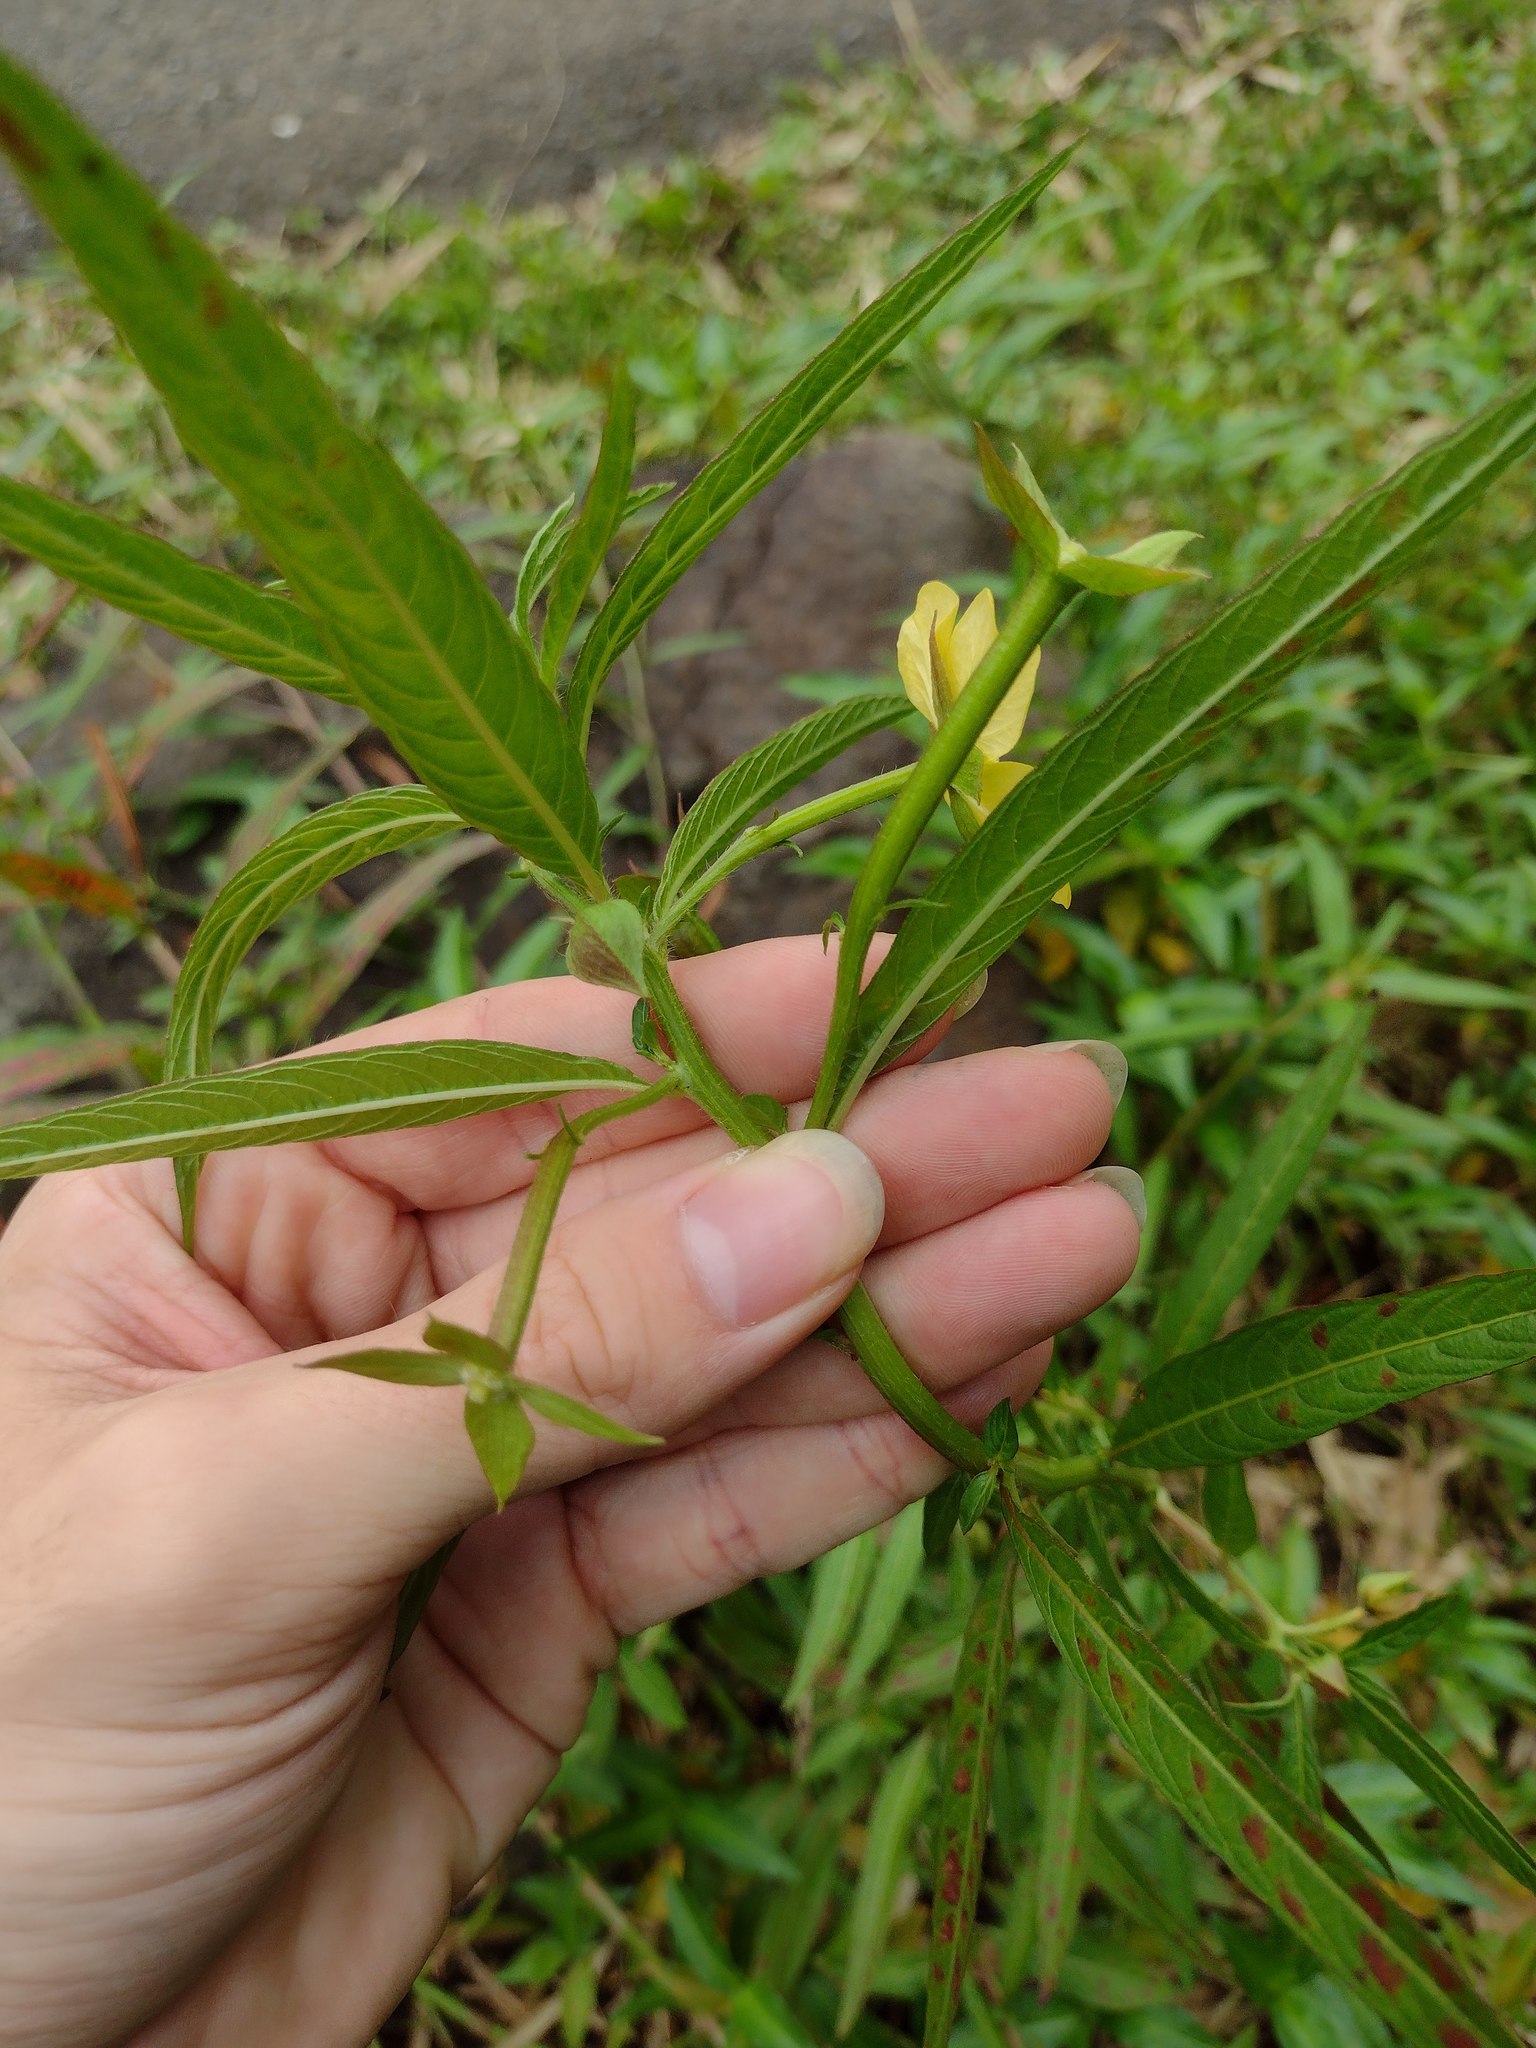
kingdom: Plantae
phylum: Tracheophyta
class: Magnoliopsida
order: Myrtales
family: Onagraceae
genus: Ludwigia
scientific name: Ludwigia octovalvis
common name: Water-primrose
